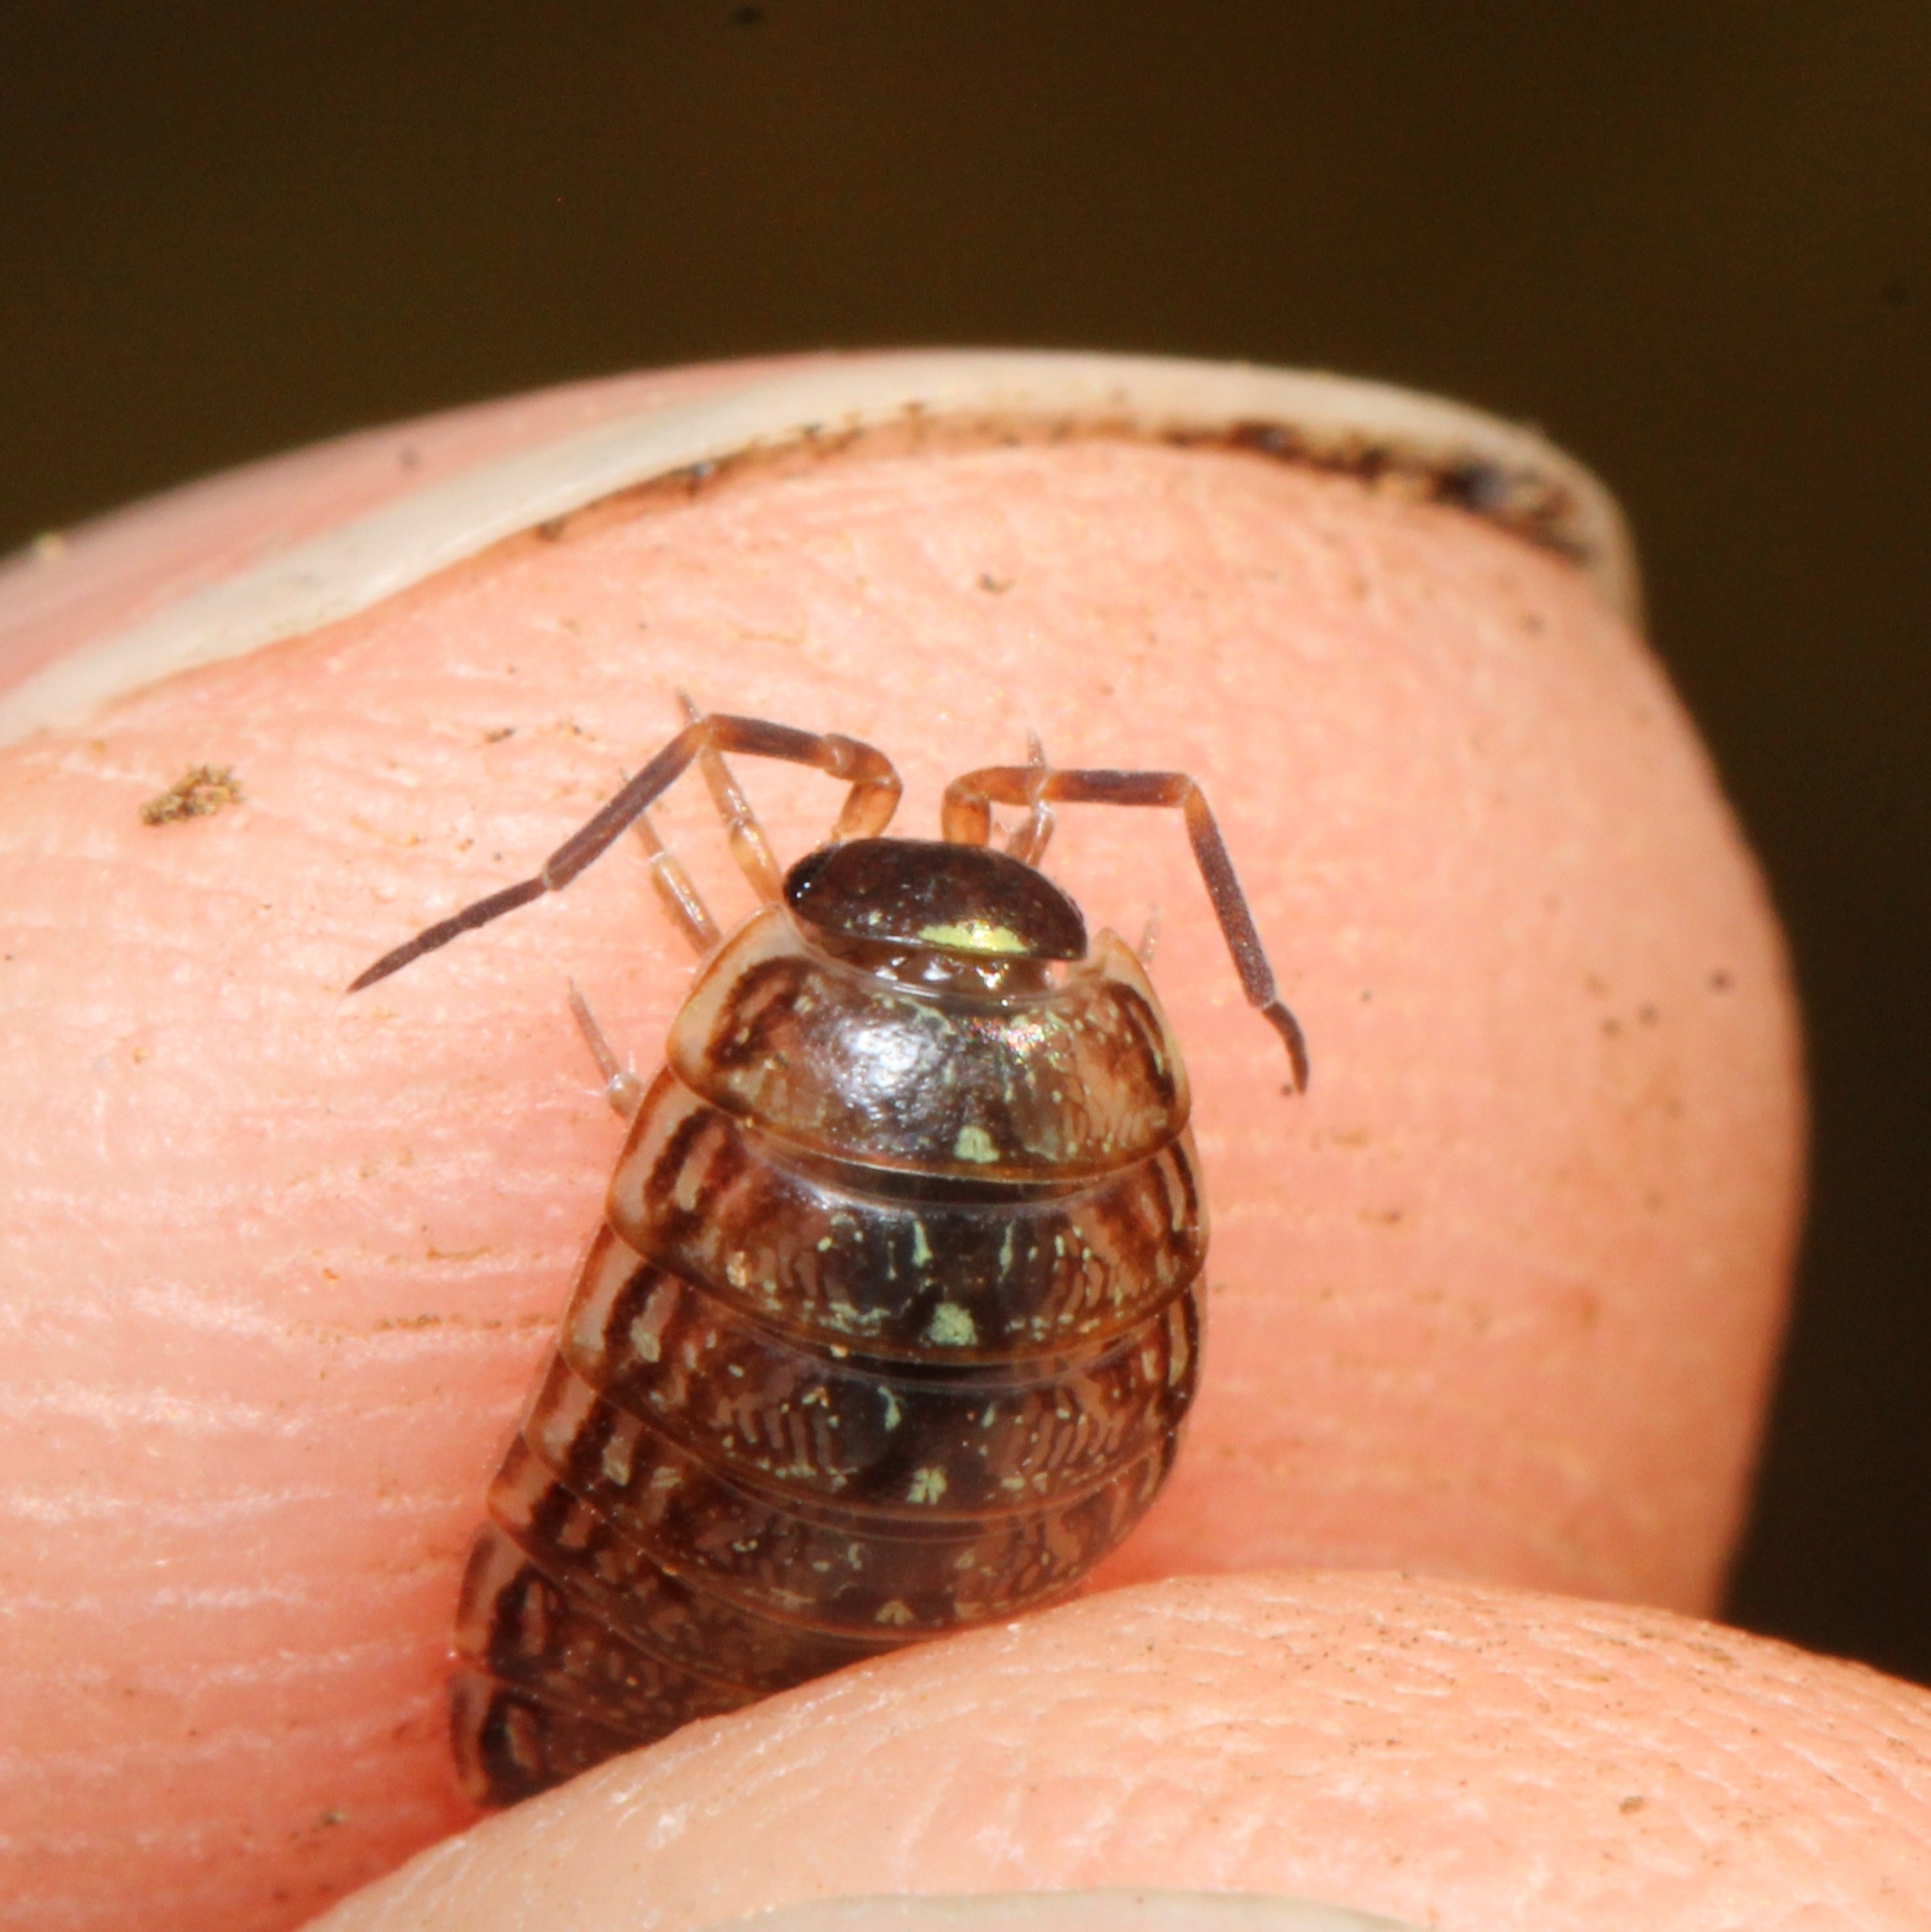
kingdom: Animalia
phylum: Arthropoda
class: Malacostraca
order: Isopoda
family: Philosciidae
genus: Philoscia
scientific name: Philoscia muscorum
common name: Common striped woodlouse
